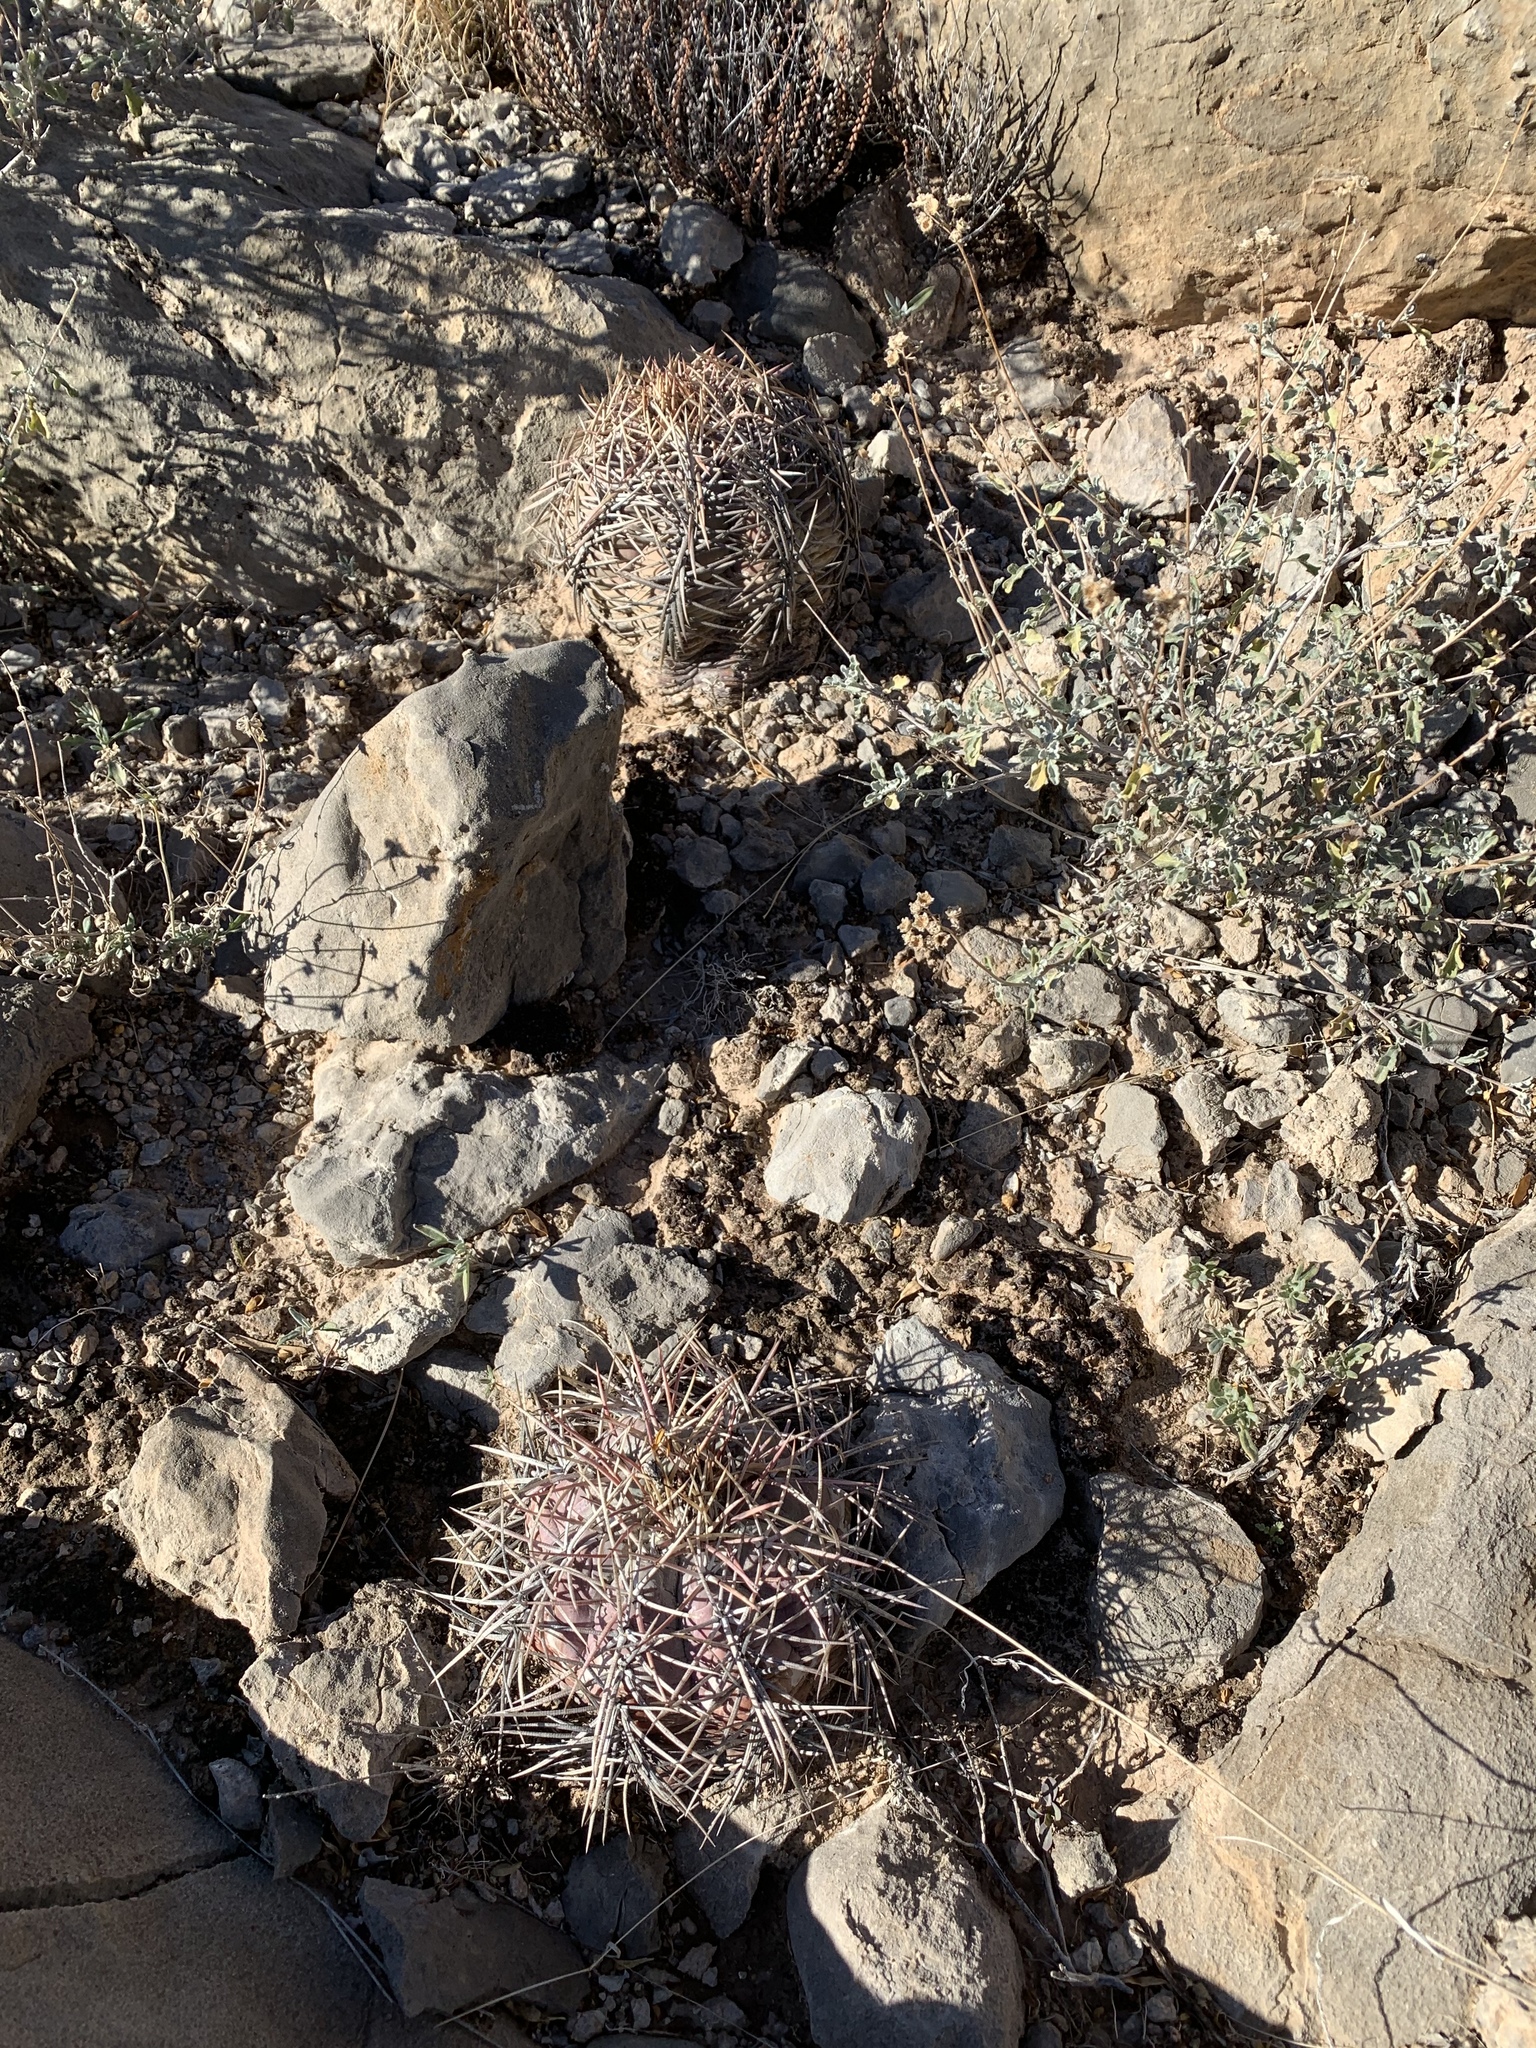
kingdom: Plantae
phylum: Tracheophyta
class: Magnoliopsida
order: Caryophyllales
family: Cactaceae
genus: Echinocactus
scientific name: Echinocactus horizonthalonius
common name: Devilshead
